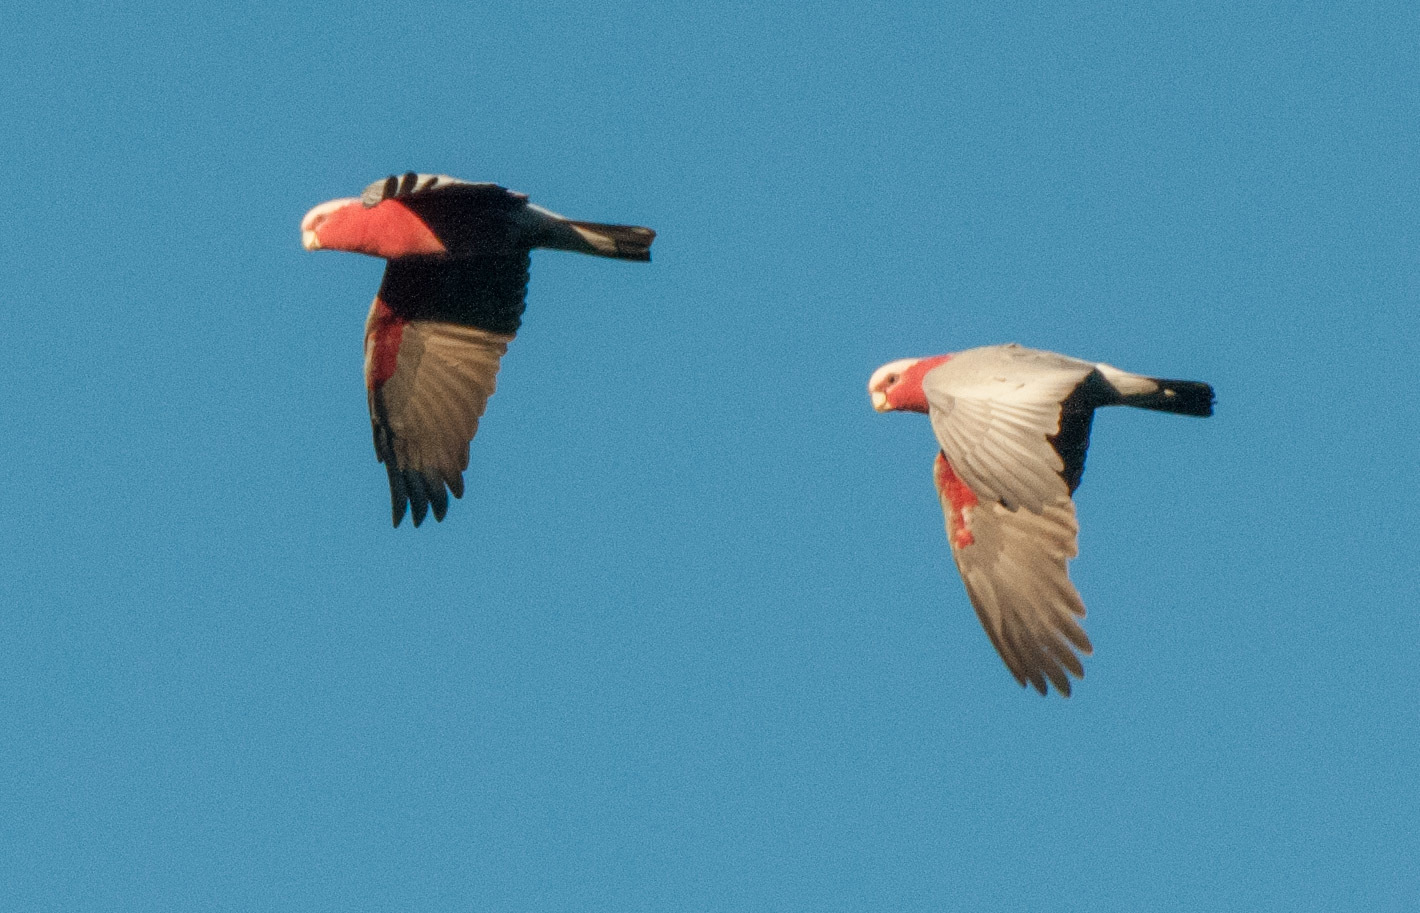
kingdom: Animalia
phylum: Chordata
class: Aves
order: Psittaciformes
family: Psittacidae
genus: Eolophus
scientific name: Eolophus roseicapilla
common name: Galah
